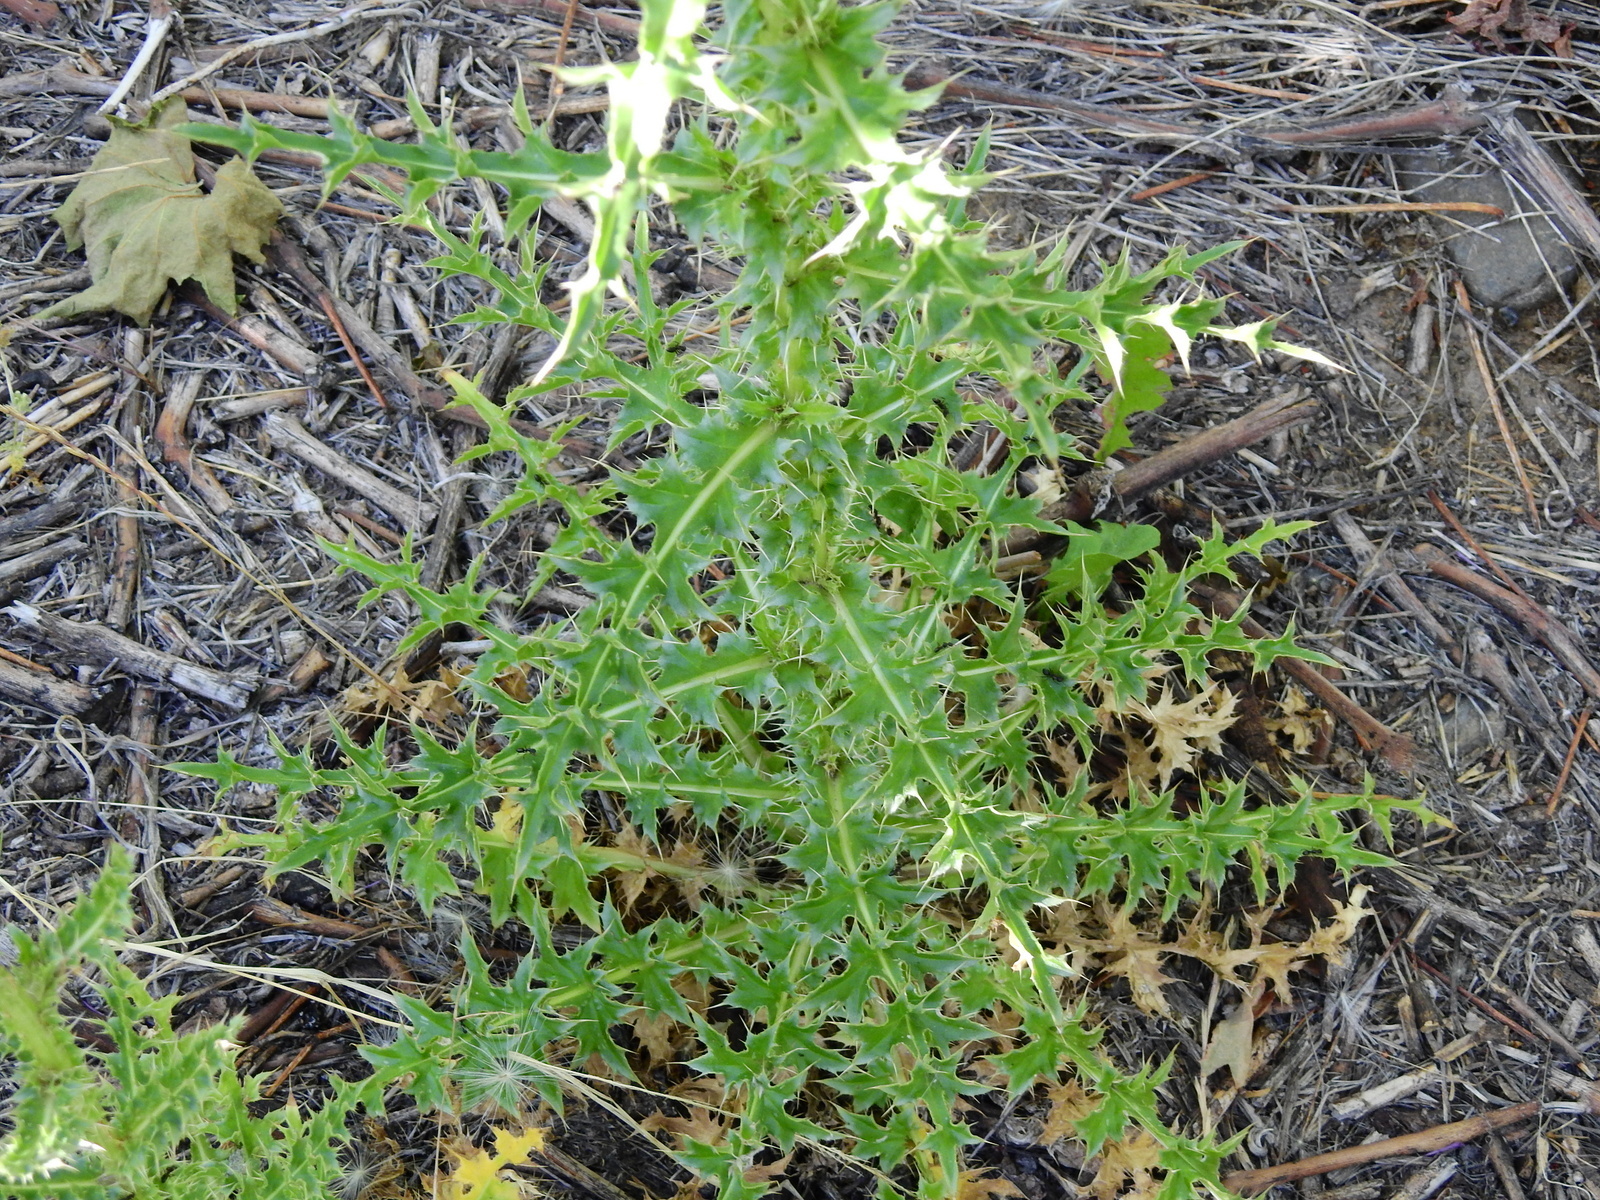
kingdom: Plantae
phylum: Tracheophyta
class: Magnoliopsida
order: Asterales
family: Asteraceae
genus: Carduus
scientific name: Carduus nutans
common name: Musk thistle
